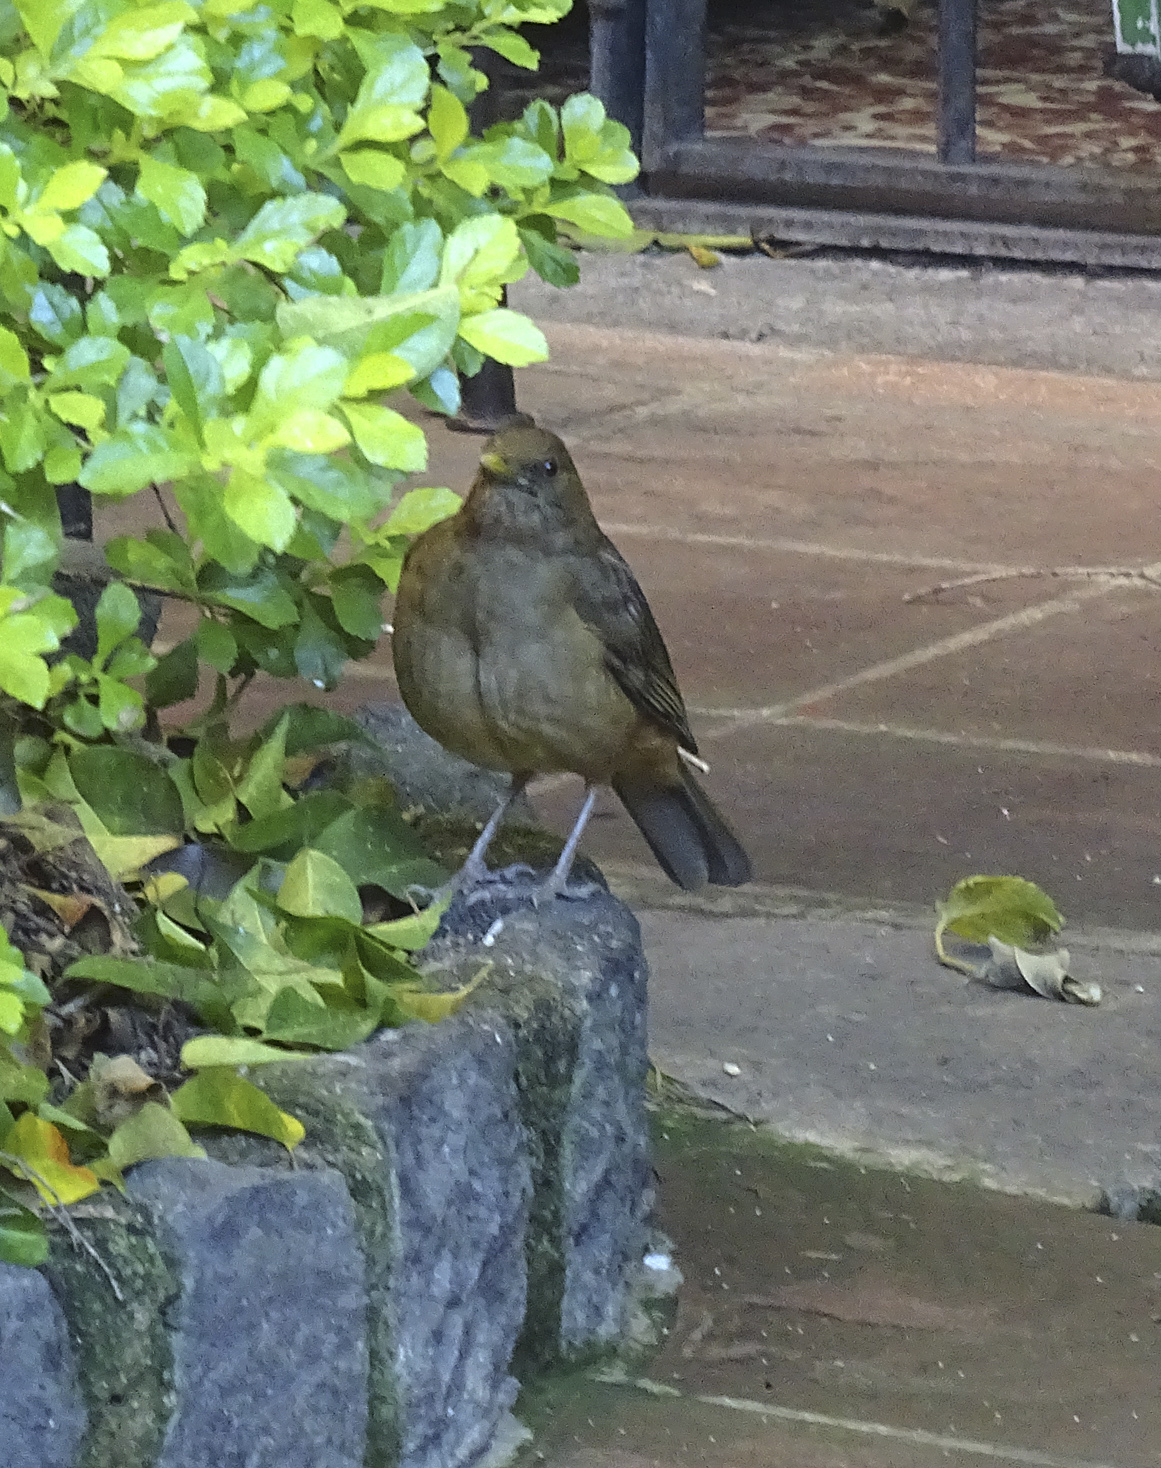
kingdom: Animalia
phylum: Chordata
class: Aves
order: Passeriformes
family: Turdidae
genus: Turdus
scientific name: Turdus grayi
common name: Clay-colored thrush
